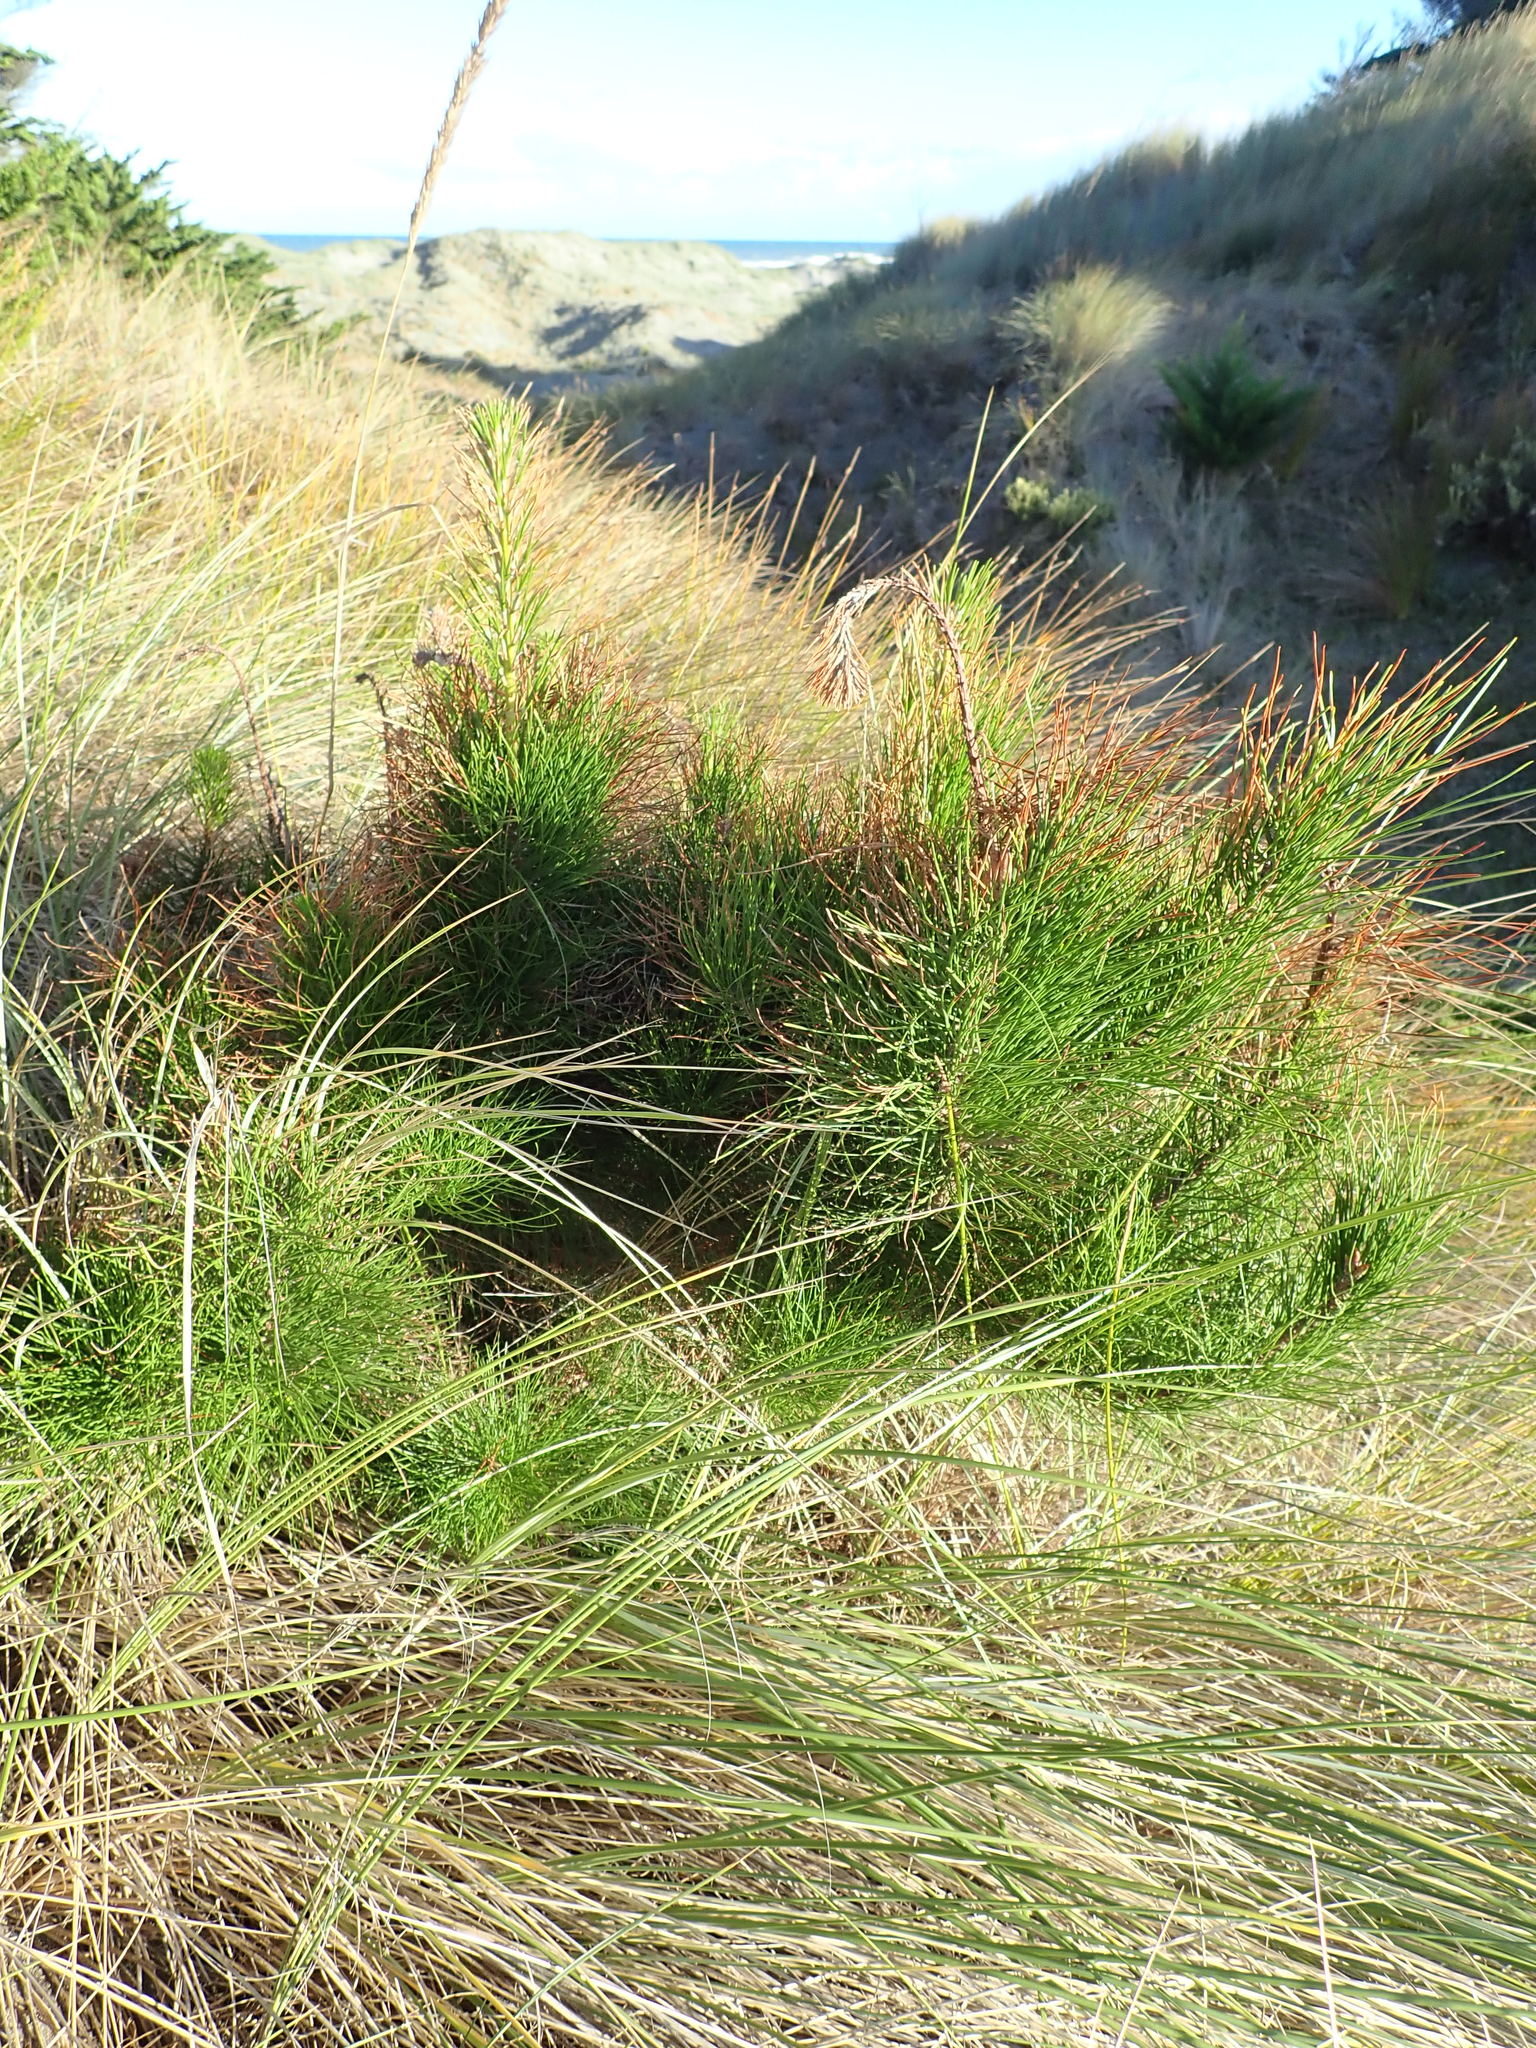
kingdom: Plantae
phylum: Tracheophyta
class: Pinopsida
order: Pinales
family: Pinaceae
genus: Pinus
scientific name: Pinus radiata
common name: Monterey pine
